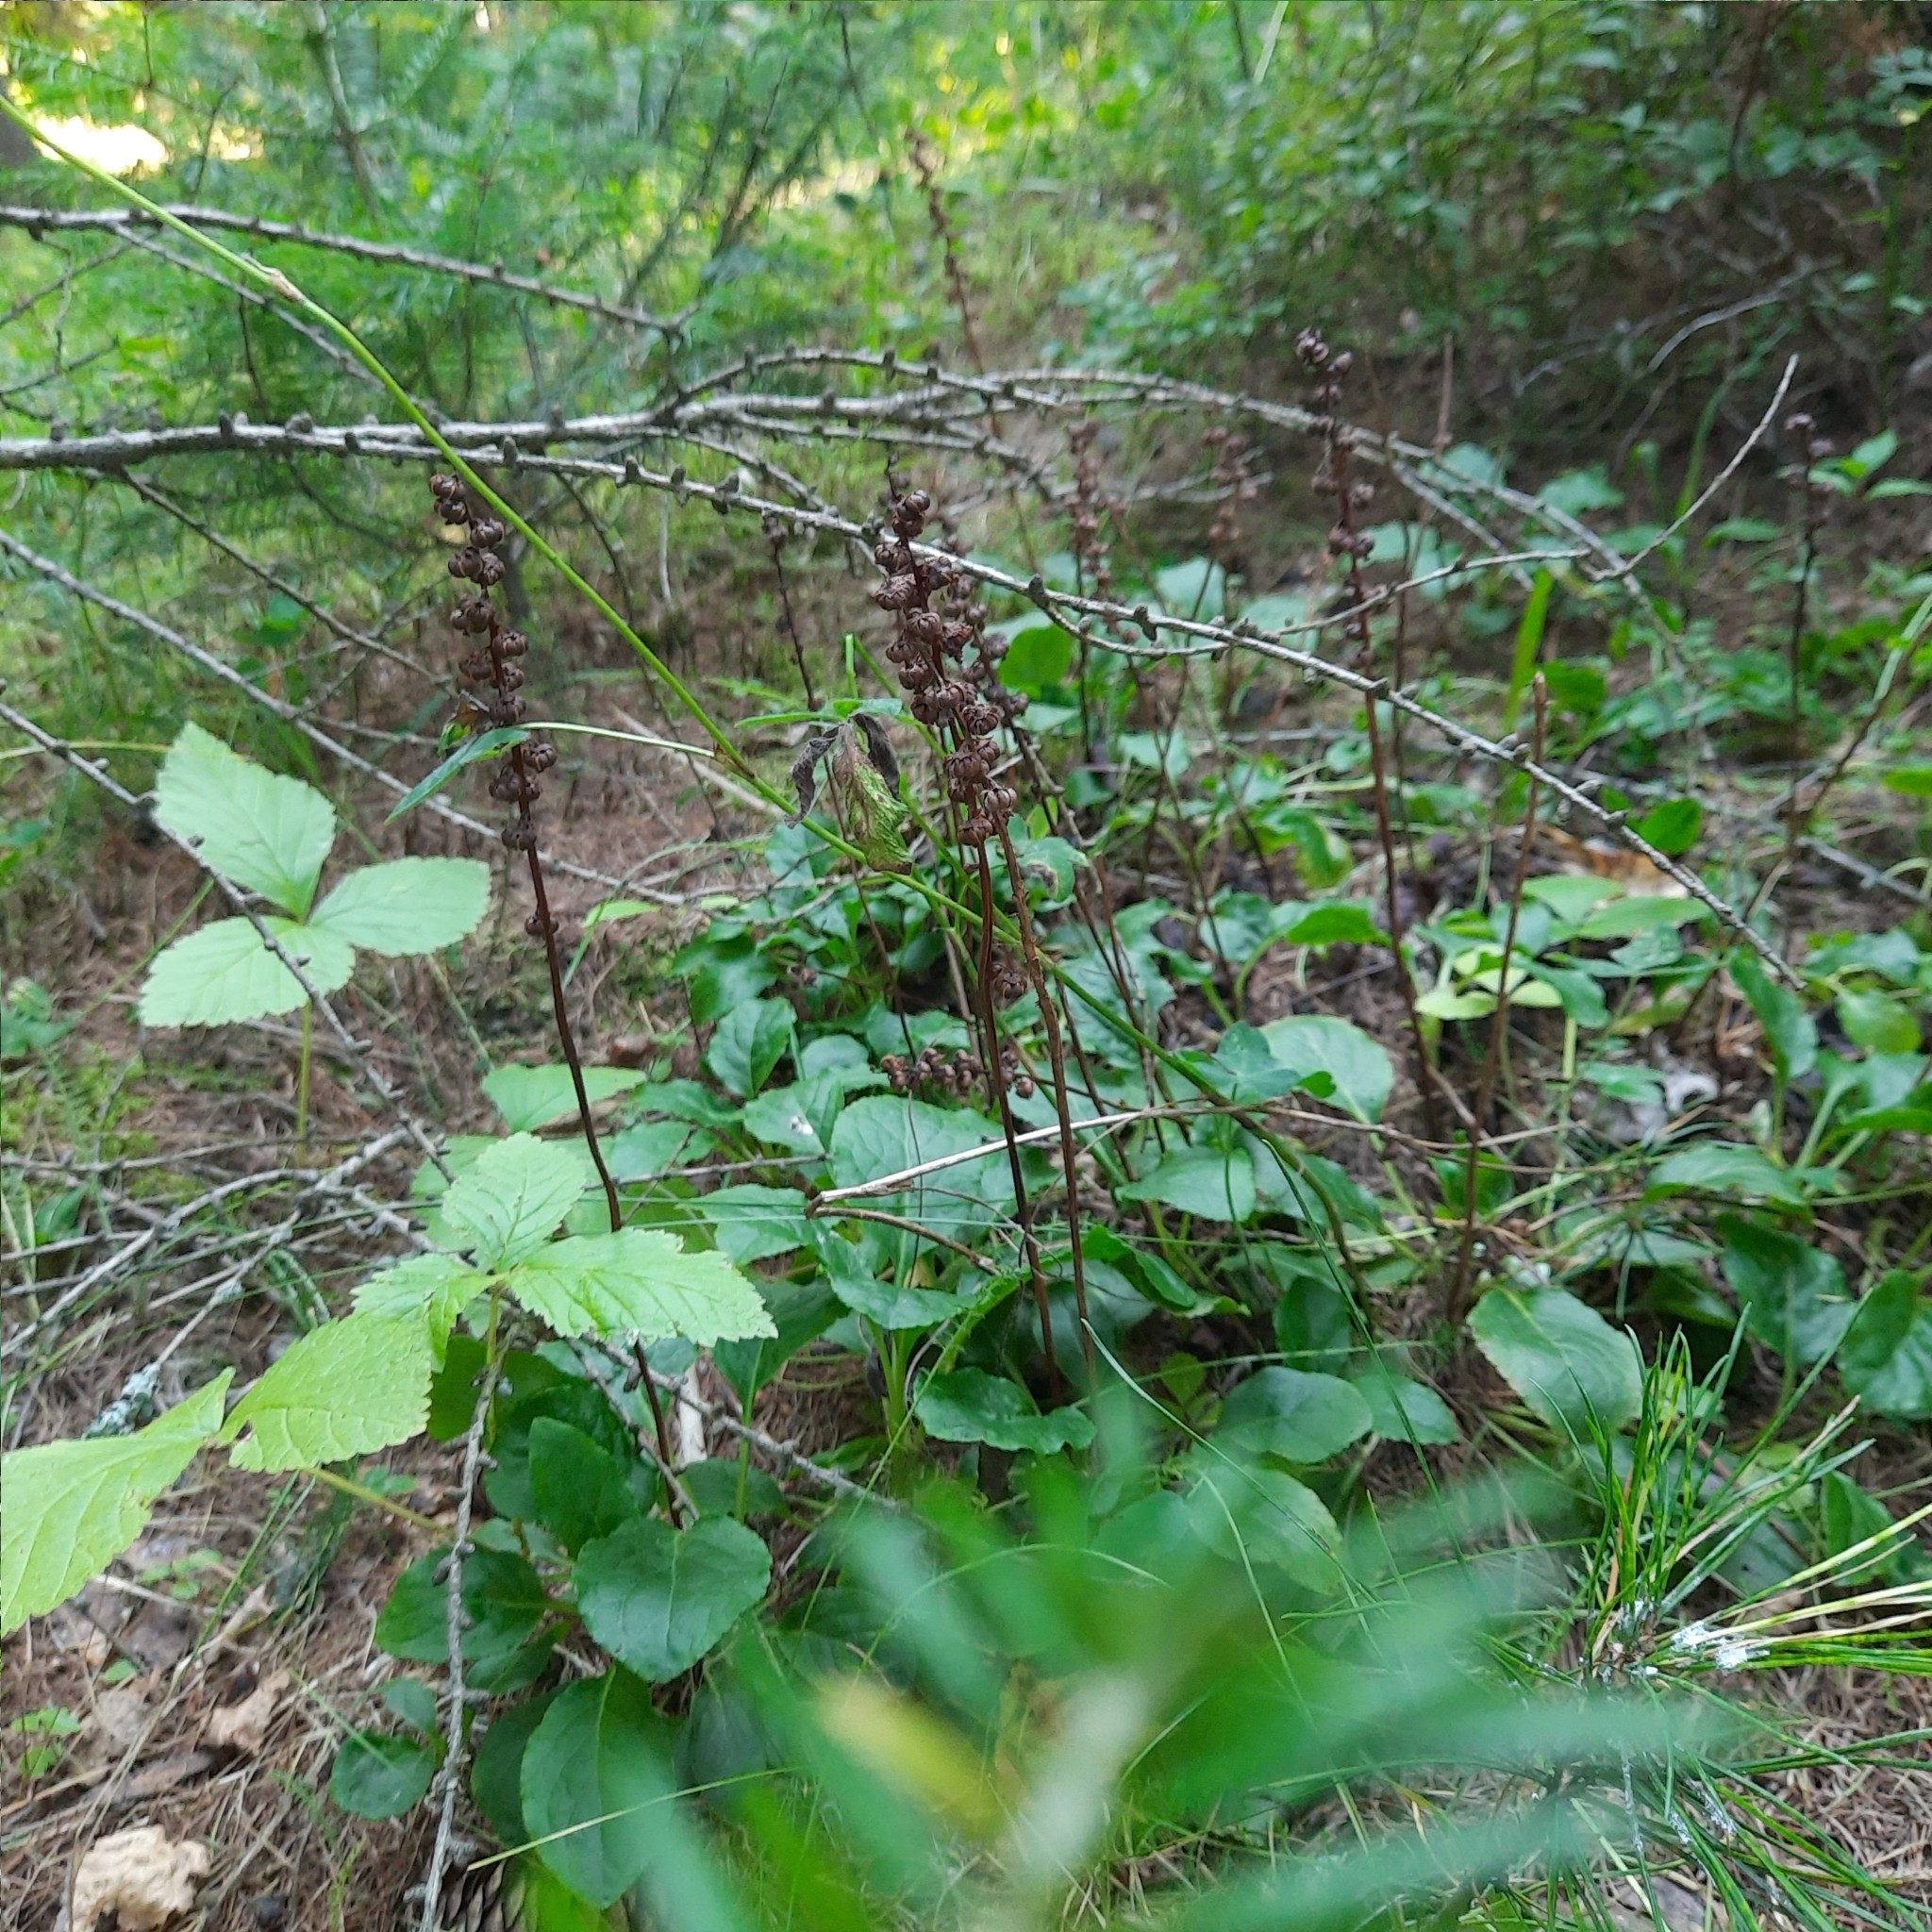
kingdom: Plantae
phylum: Tracheophyta
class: Magnoliopsida
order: Ericales
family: Ericaceae
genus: Pyrola
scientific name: Pyrola minor
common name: Common wintergreen
